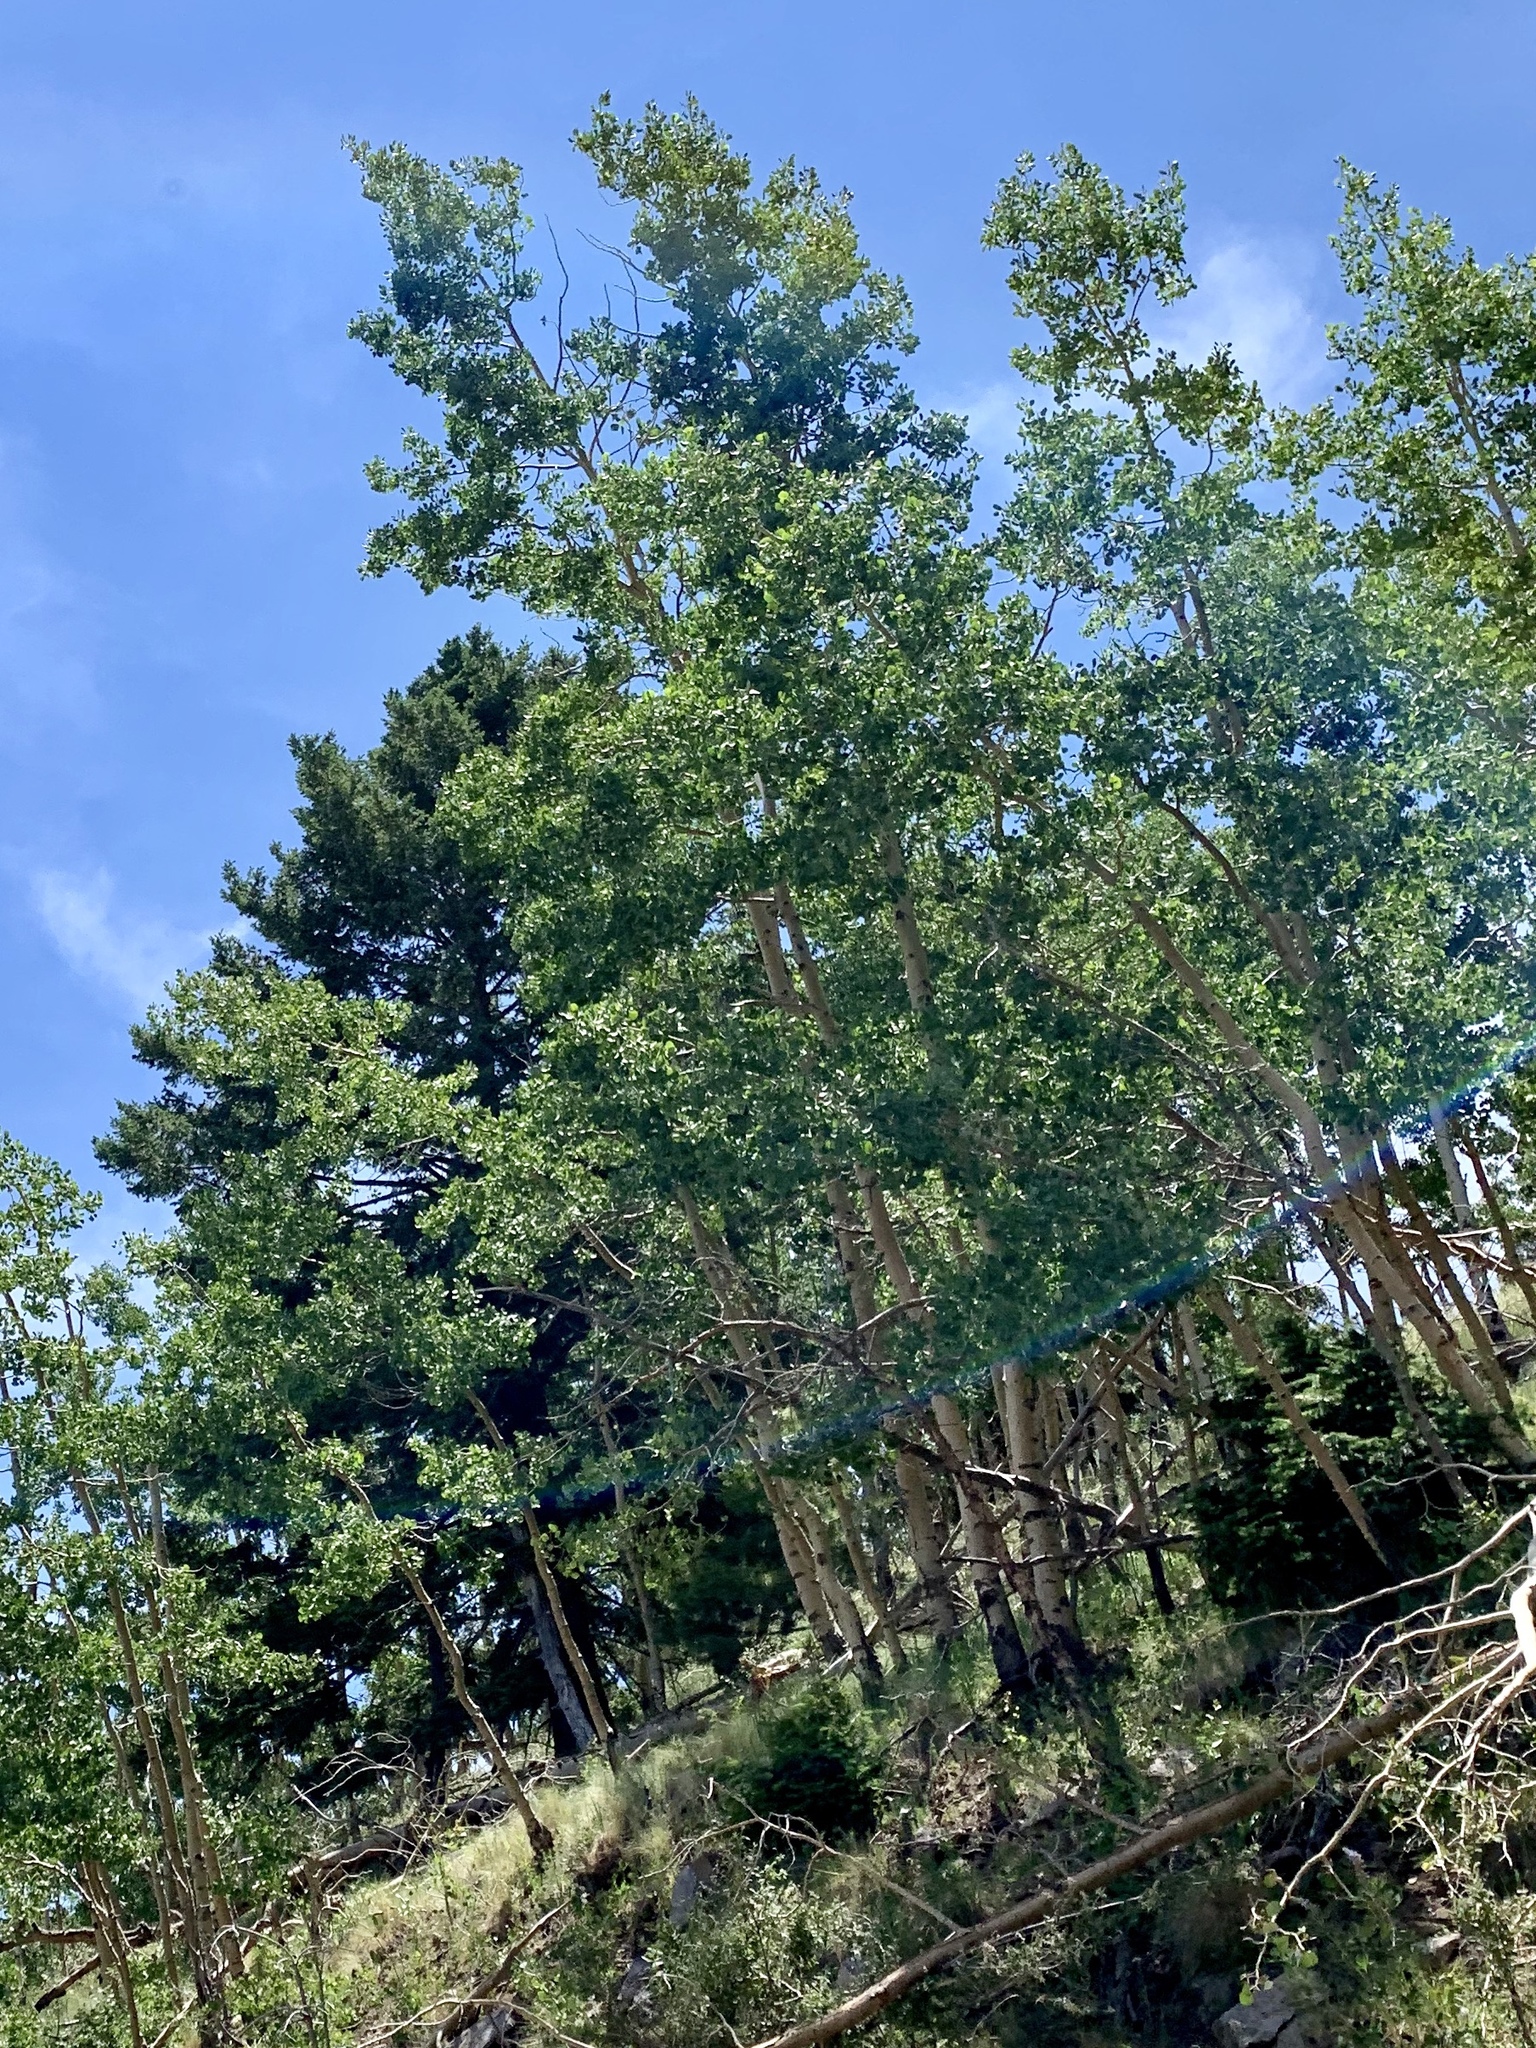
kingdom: Plantae
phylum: Tracheophyta
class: Magnoliopsida
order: Malpighiales
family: Salicaceae
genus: Populus
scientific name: Populus tremuloides
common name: Quaking aspen
